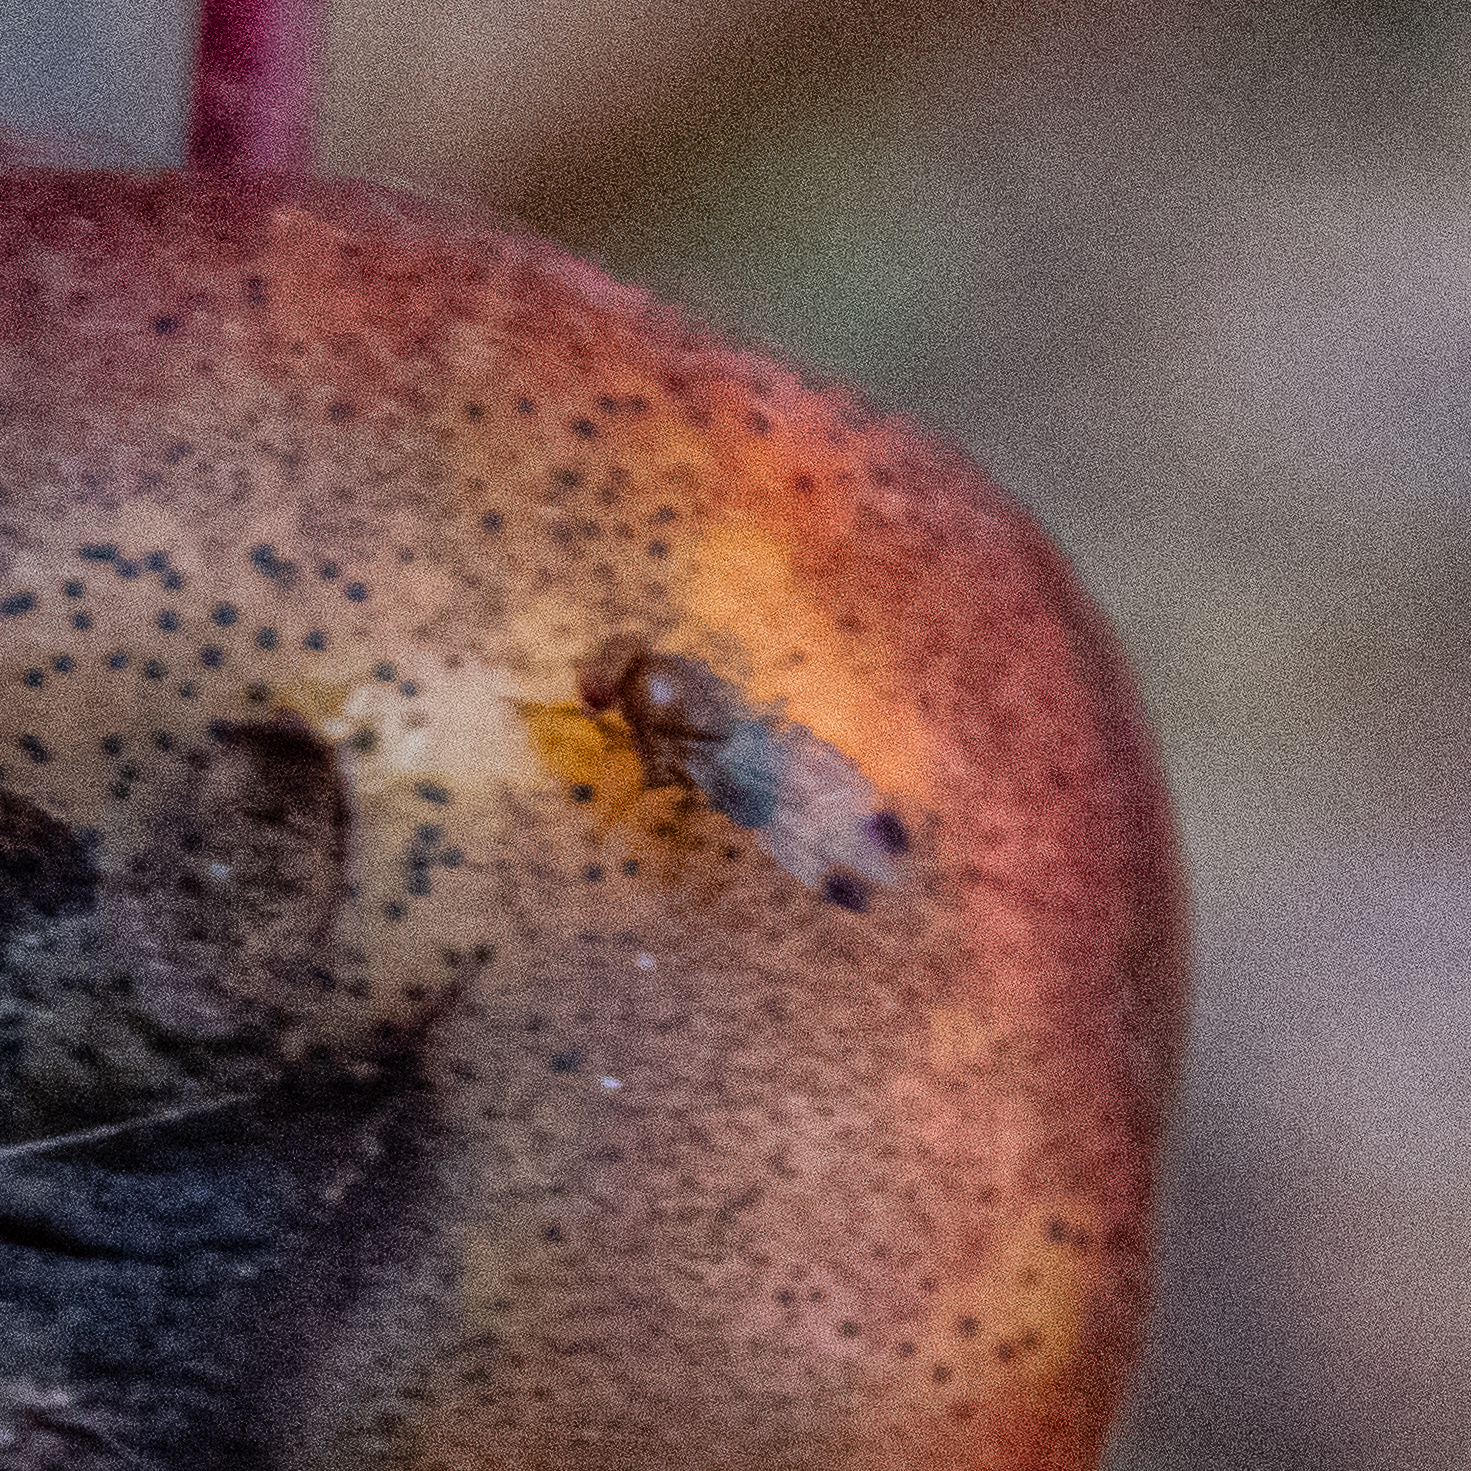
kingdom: Animalia
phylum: Arthropoda
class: Insecta
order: Diptera
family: Drosophilidae
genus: Drosophila
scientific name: Drosophila suzukii
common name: Spotted-wing drosophila
